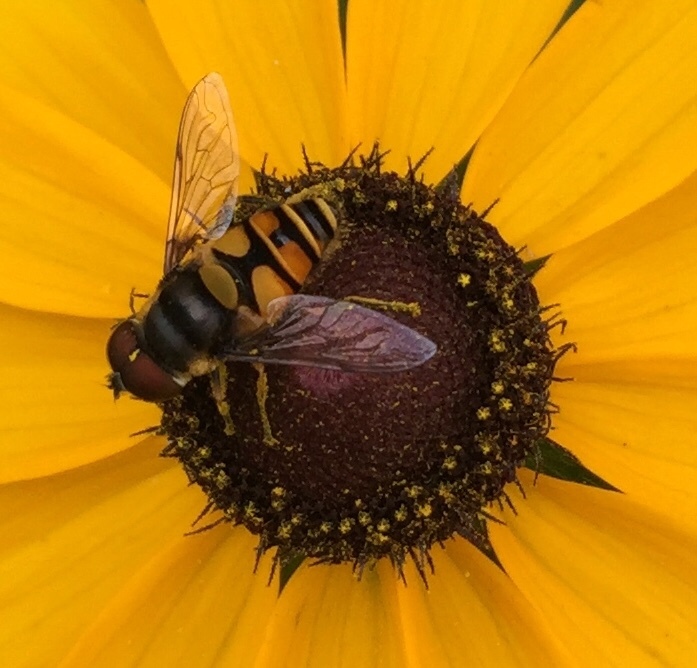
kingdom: Animalia
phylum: Arthropoda
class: Insecta
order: Diptera
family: Syrphidae
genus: Eristalis
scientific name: Eristalis transversa
